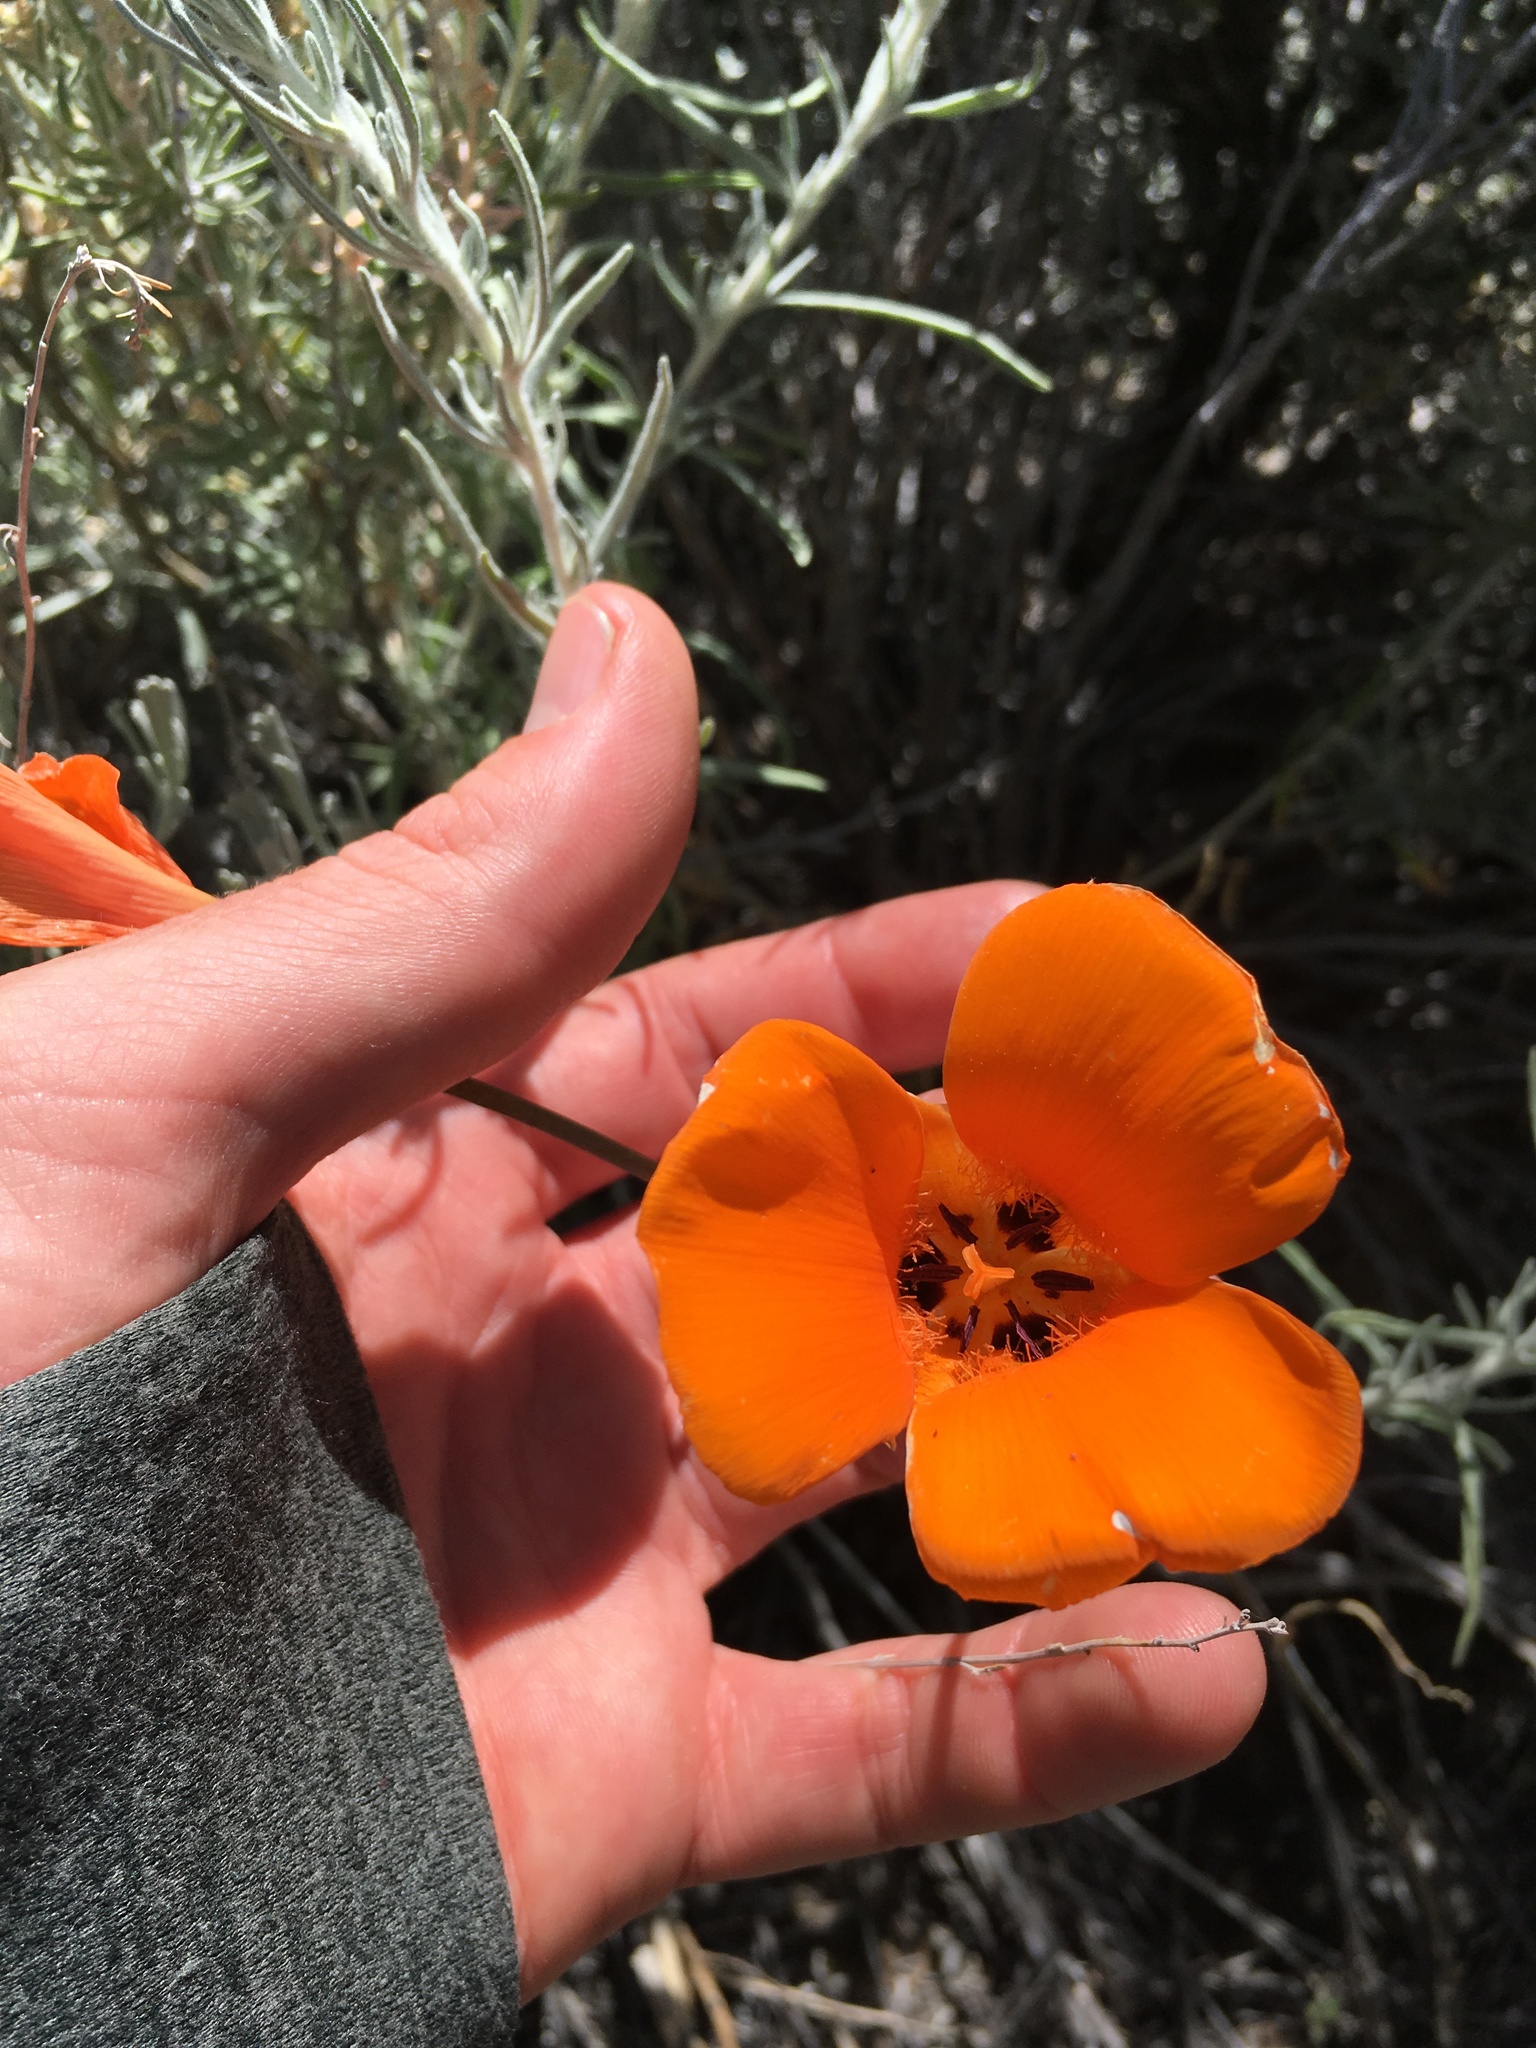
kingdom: Plantae
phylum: Tracheophyta
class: Liliopsida
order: Liliales
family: Liliaceae
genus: Calochortus
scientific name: Calochortus kennedyi
